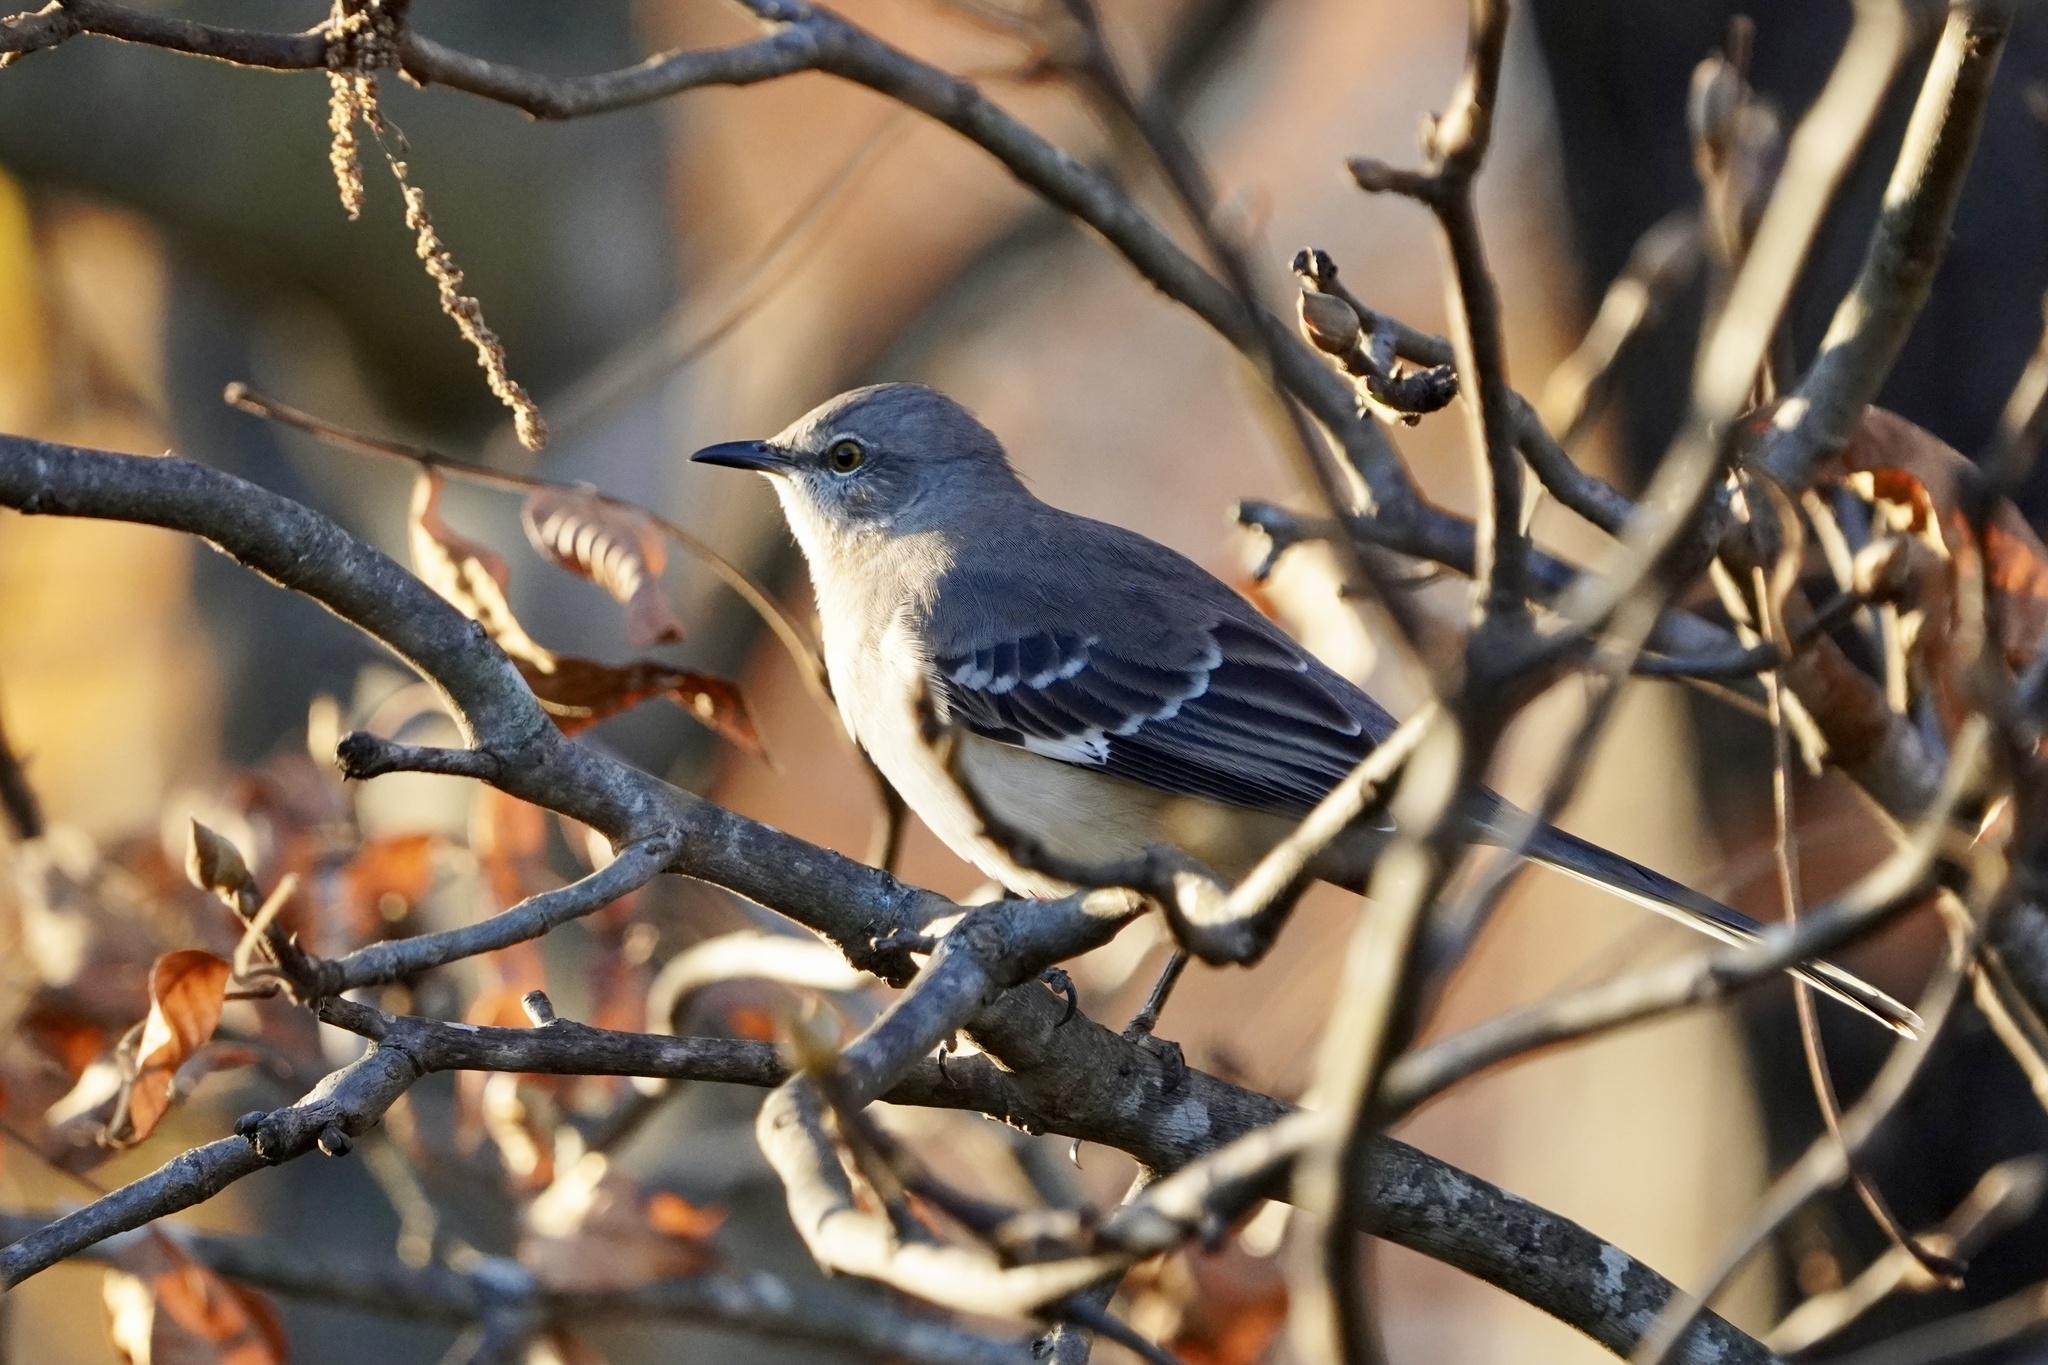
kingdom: Animalia
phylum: Chordata
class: Aves
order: Passeriformes
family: Mimidae
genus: Mimus
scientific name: Mimus polyglottos
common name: Northern mockingbird
